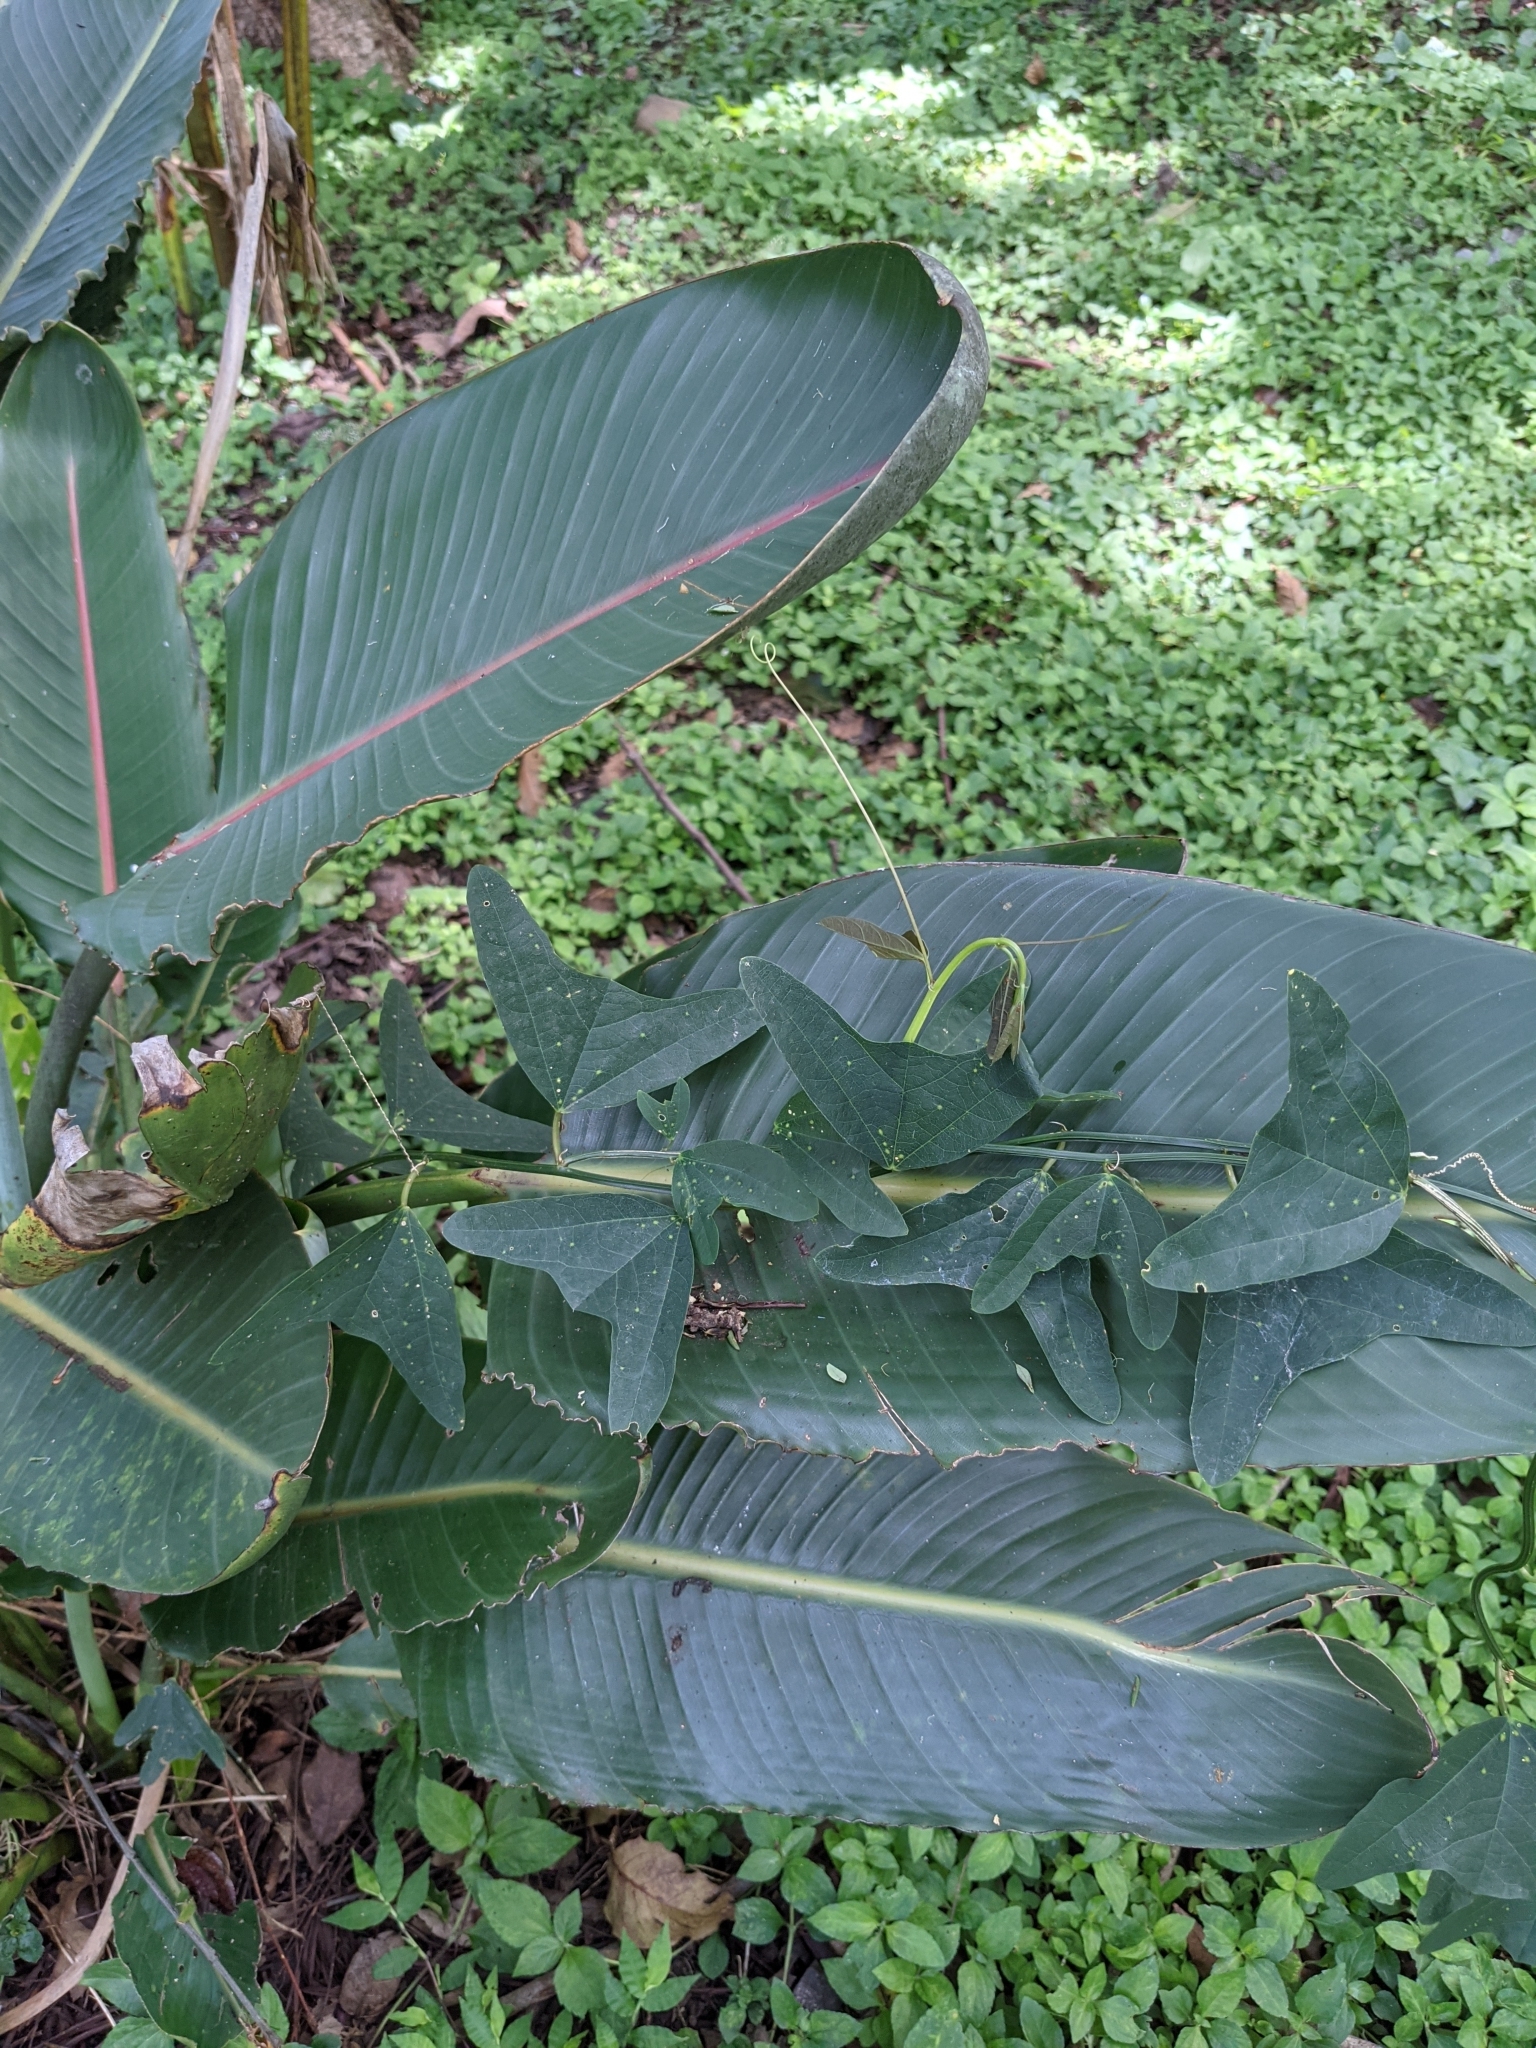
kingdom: Plantae
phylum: Tracheophyta
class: Magnoliopsida
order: Malpighiales
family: Passifloraceae
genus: Passiflora
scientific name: Passiflora biflora
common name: Twoflower passionflower
